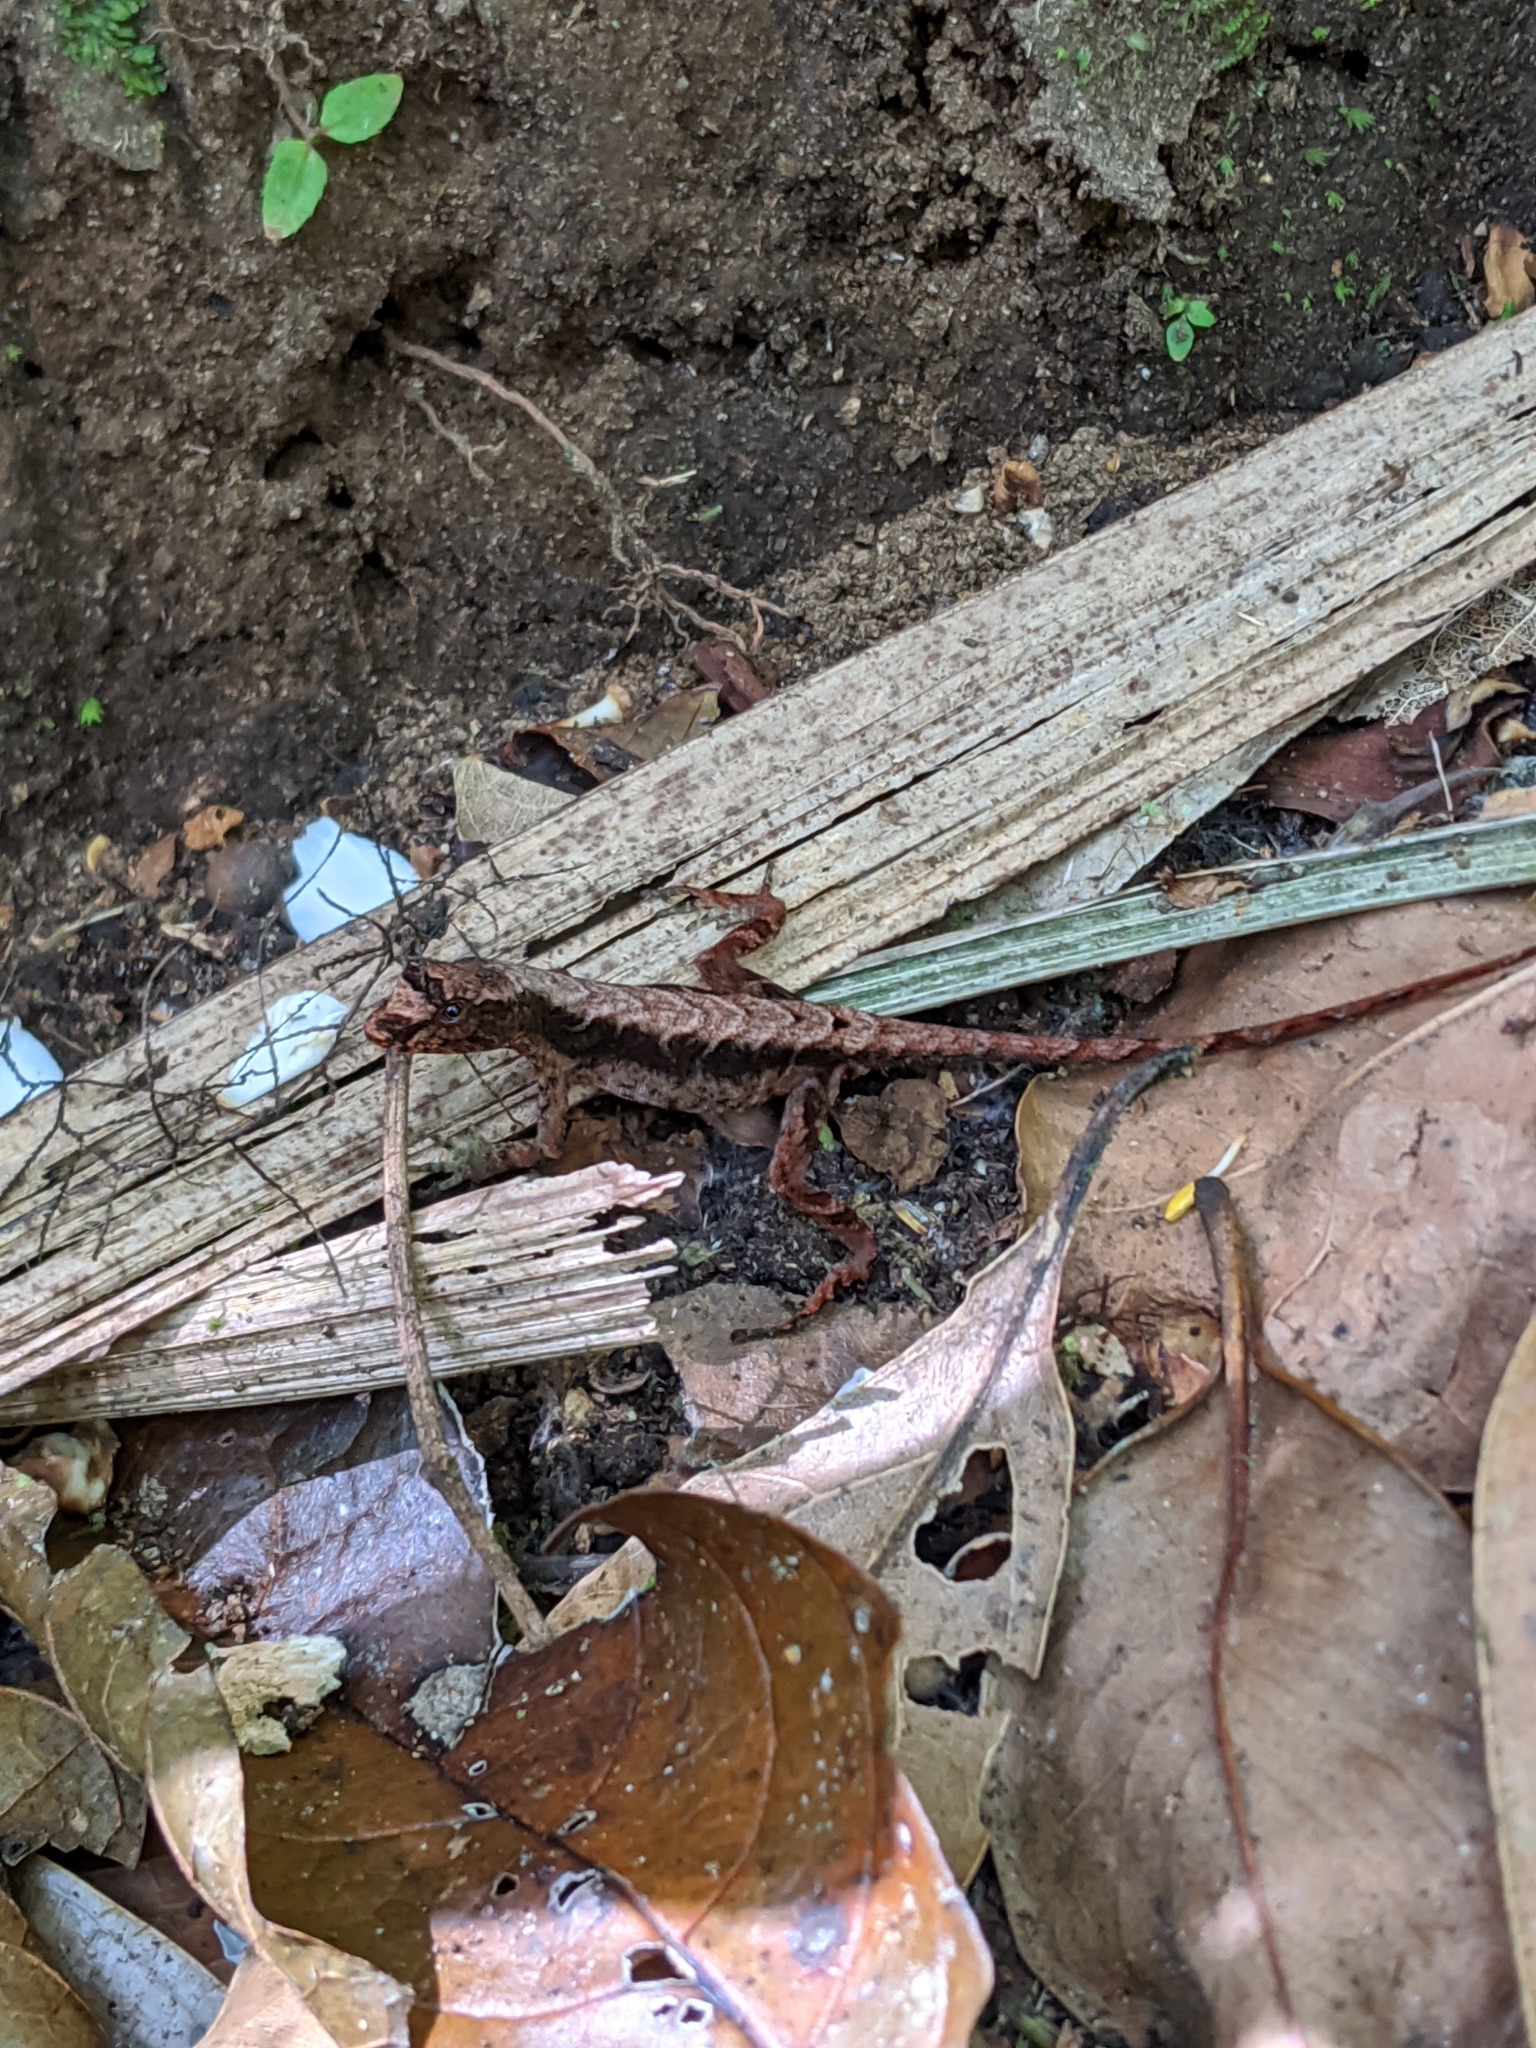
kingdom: Animalia
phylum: Chordata
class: Squamata
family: Dactyloidae
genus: Anolis
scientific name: Anolis humilis
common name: Humble anole
